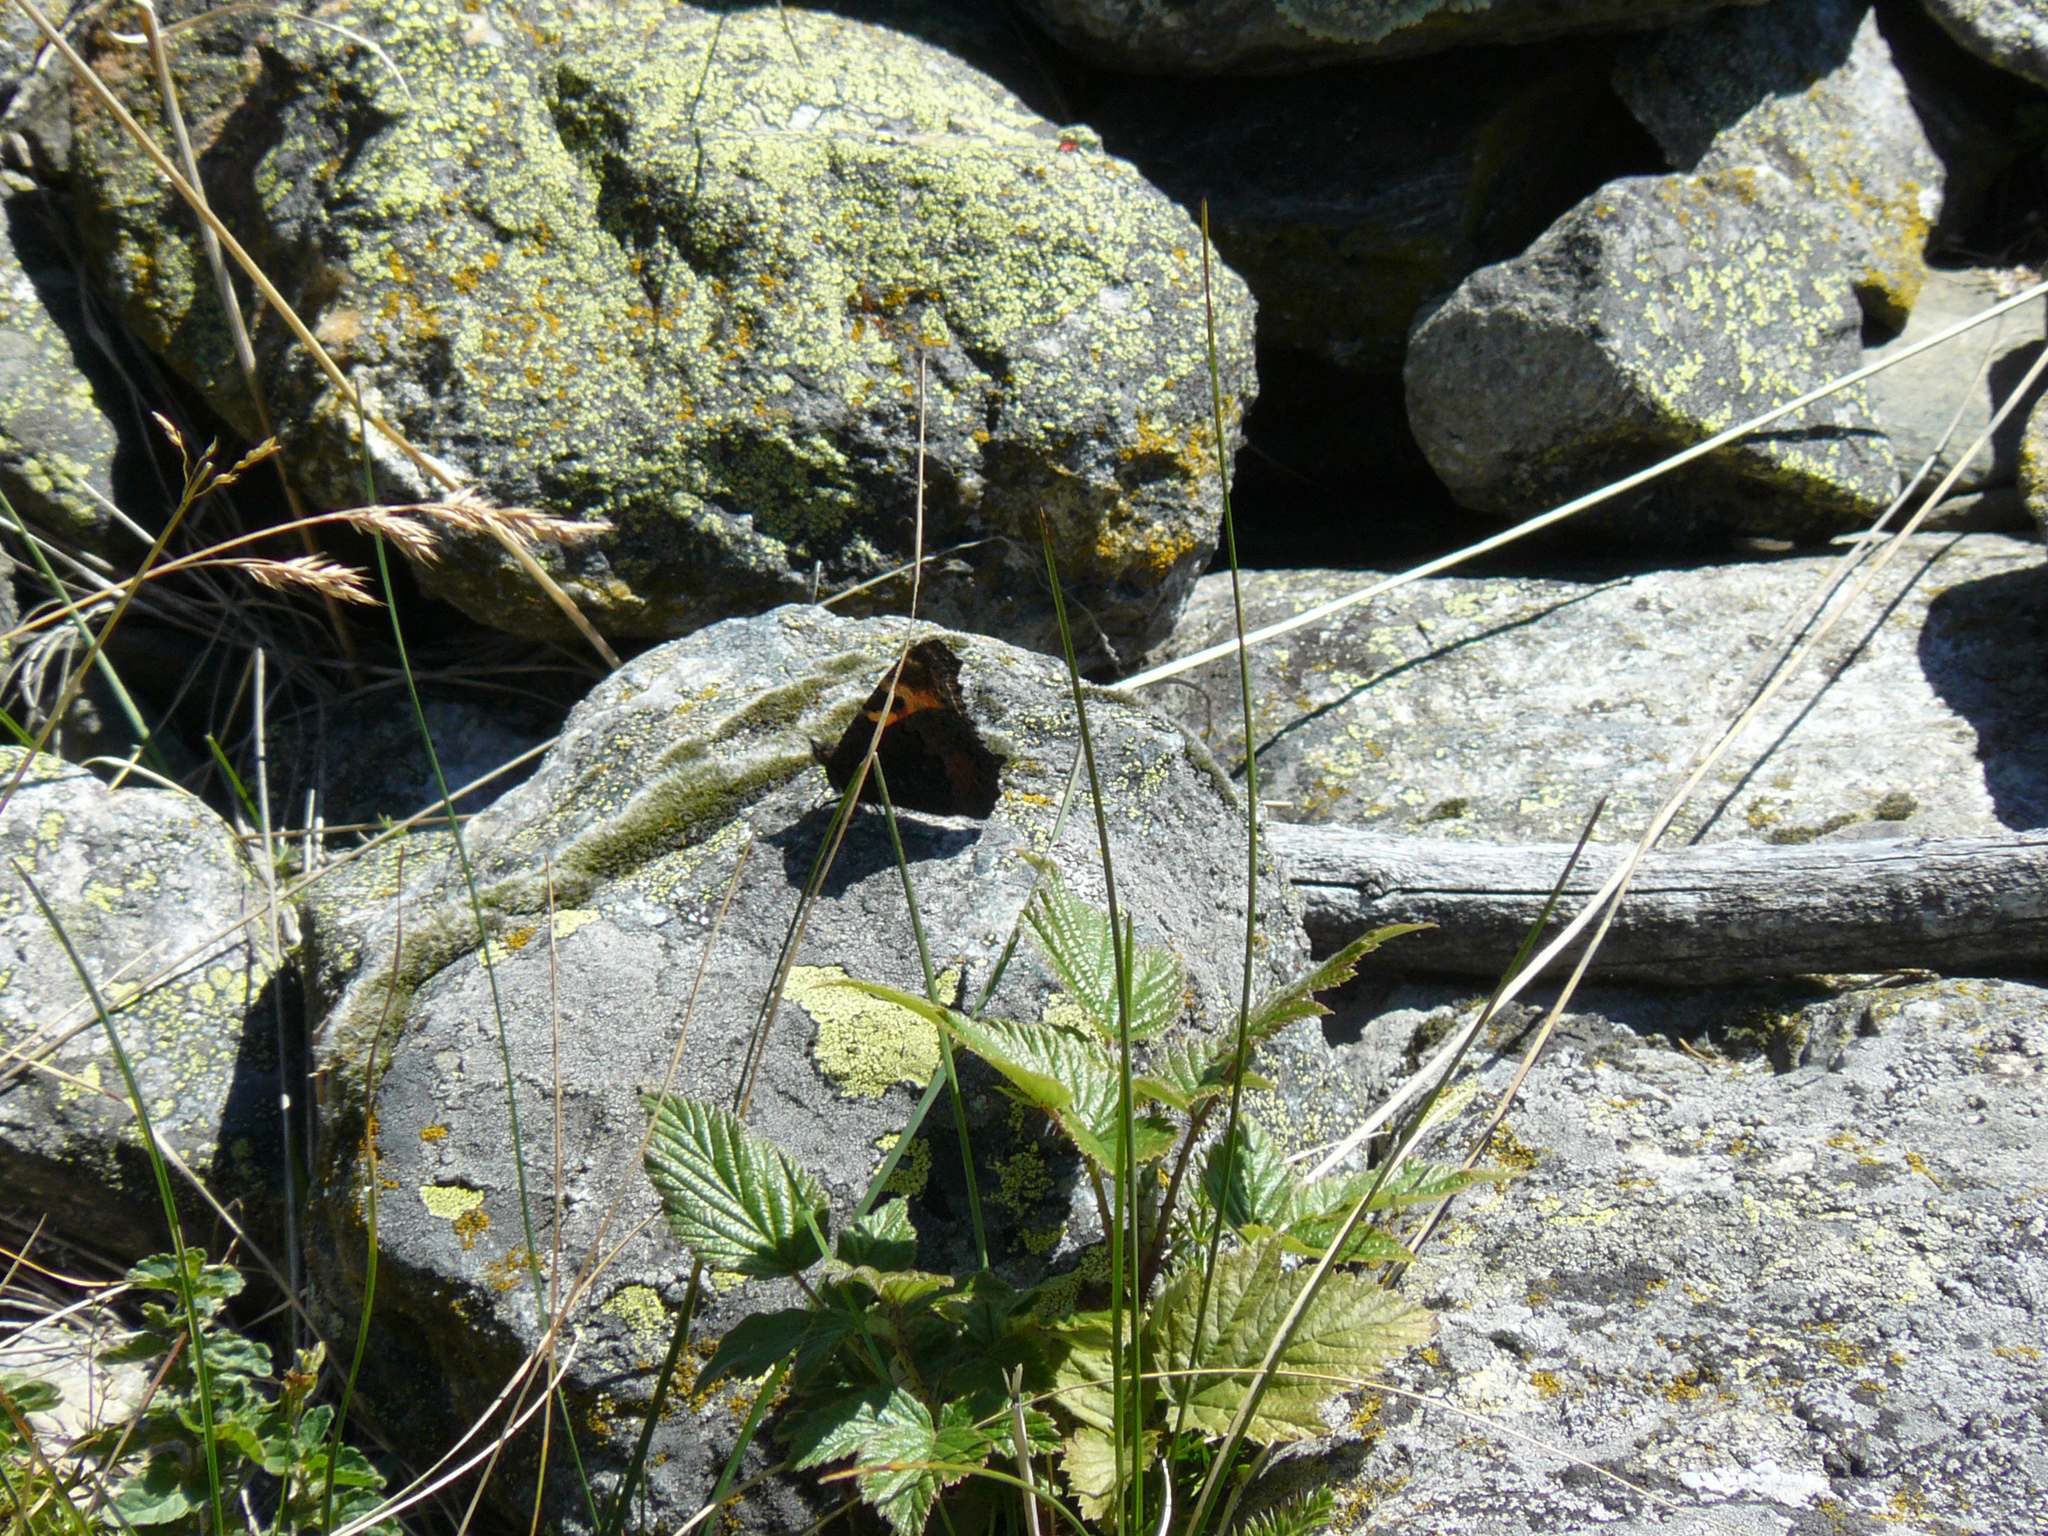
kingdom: Animalia
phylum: Arthropoda
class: Insecta
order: Lepidoptera
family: Nymphalidae
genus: Aglais
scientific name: Aglais urticae
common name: Small tortoiseshell
